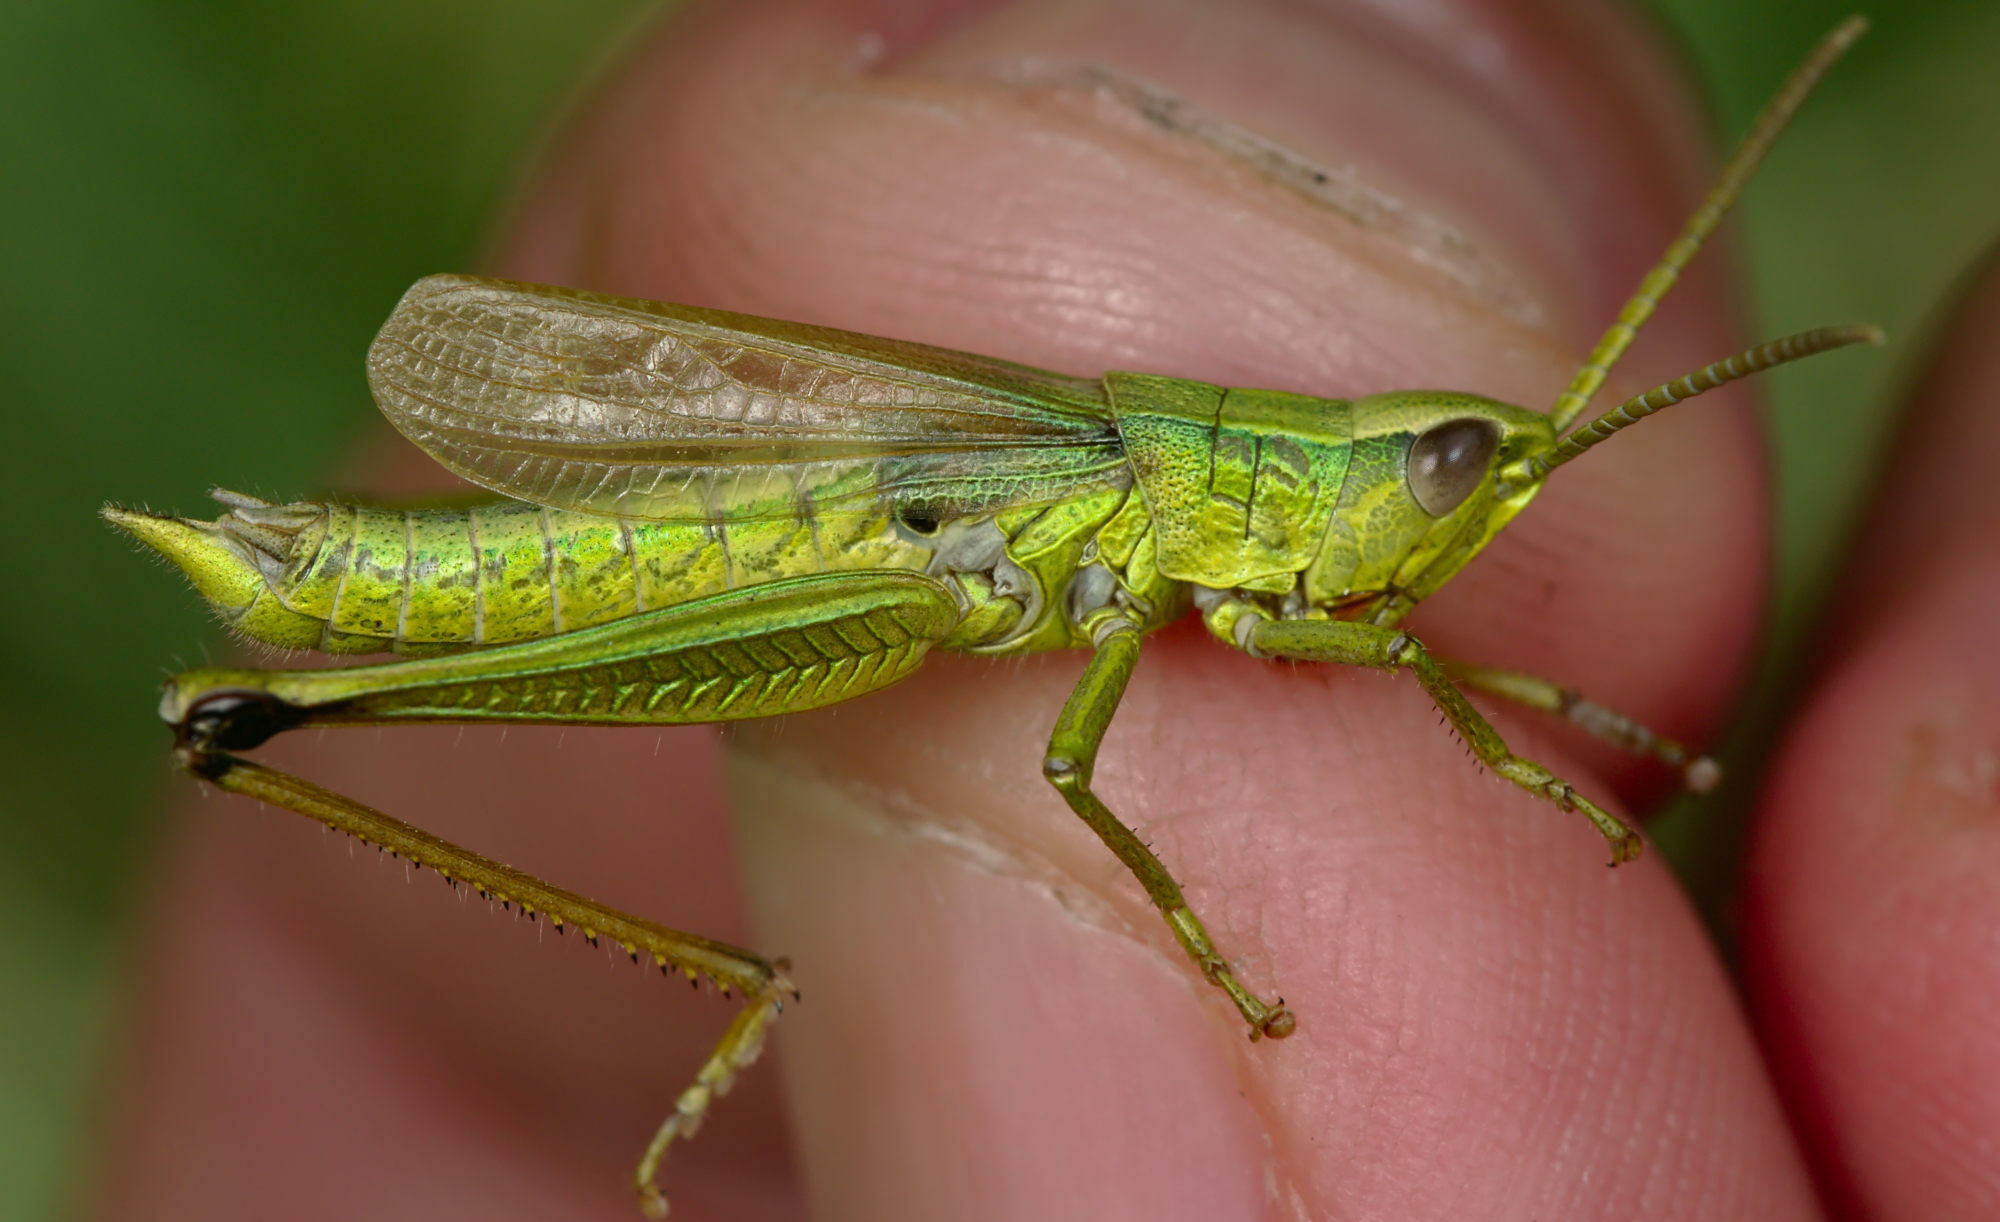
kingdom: Animalia
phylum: Arthropoda
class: Insecta
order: Orthoptera
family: Acrididae
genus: Chrysochraon
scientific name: Chrysochraon dispar
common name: Large gold grasshopper
